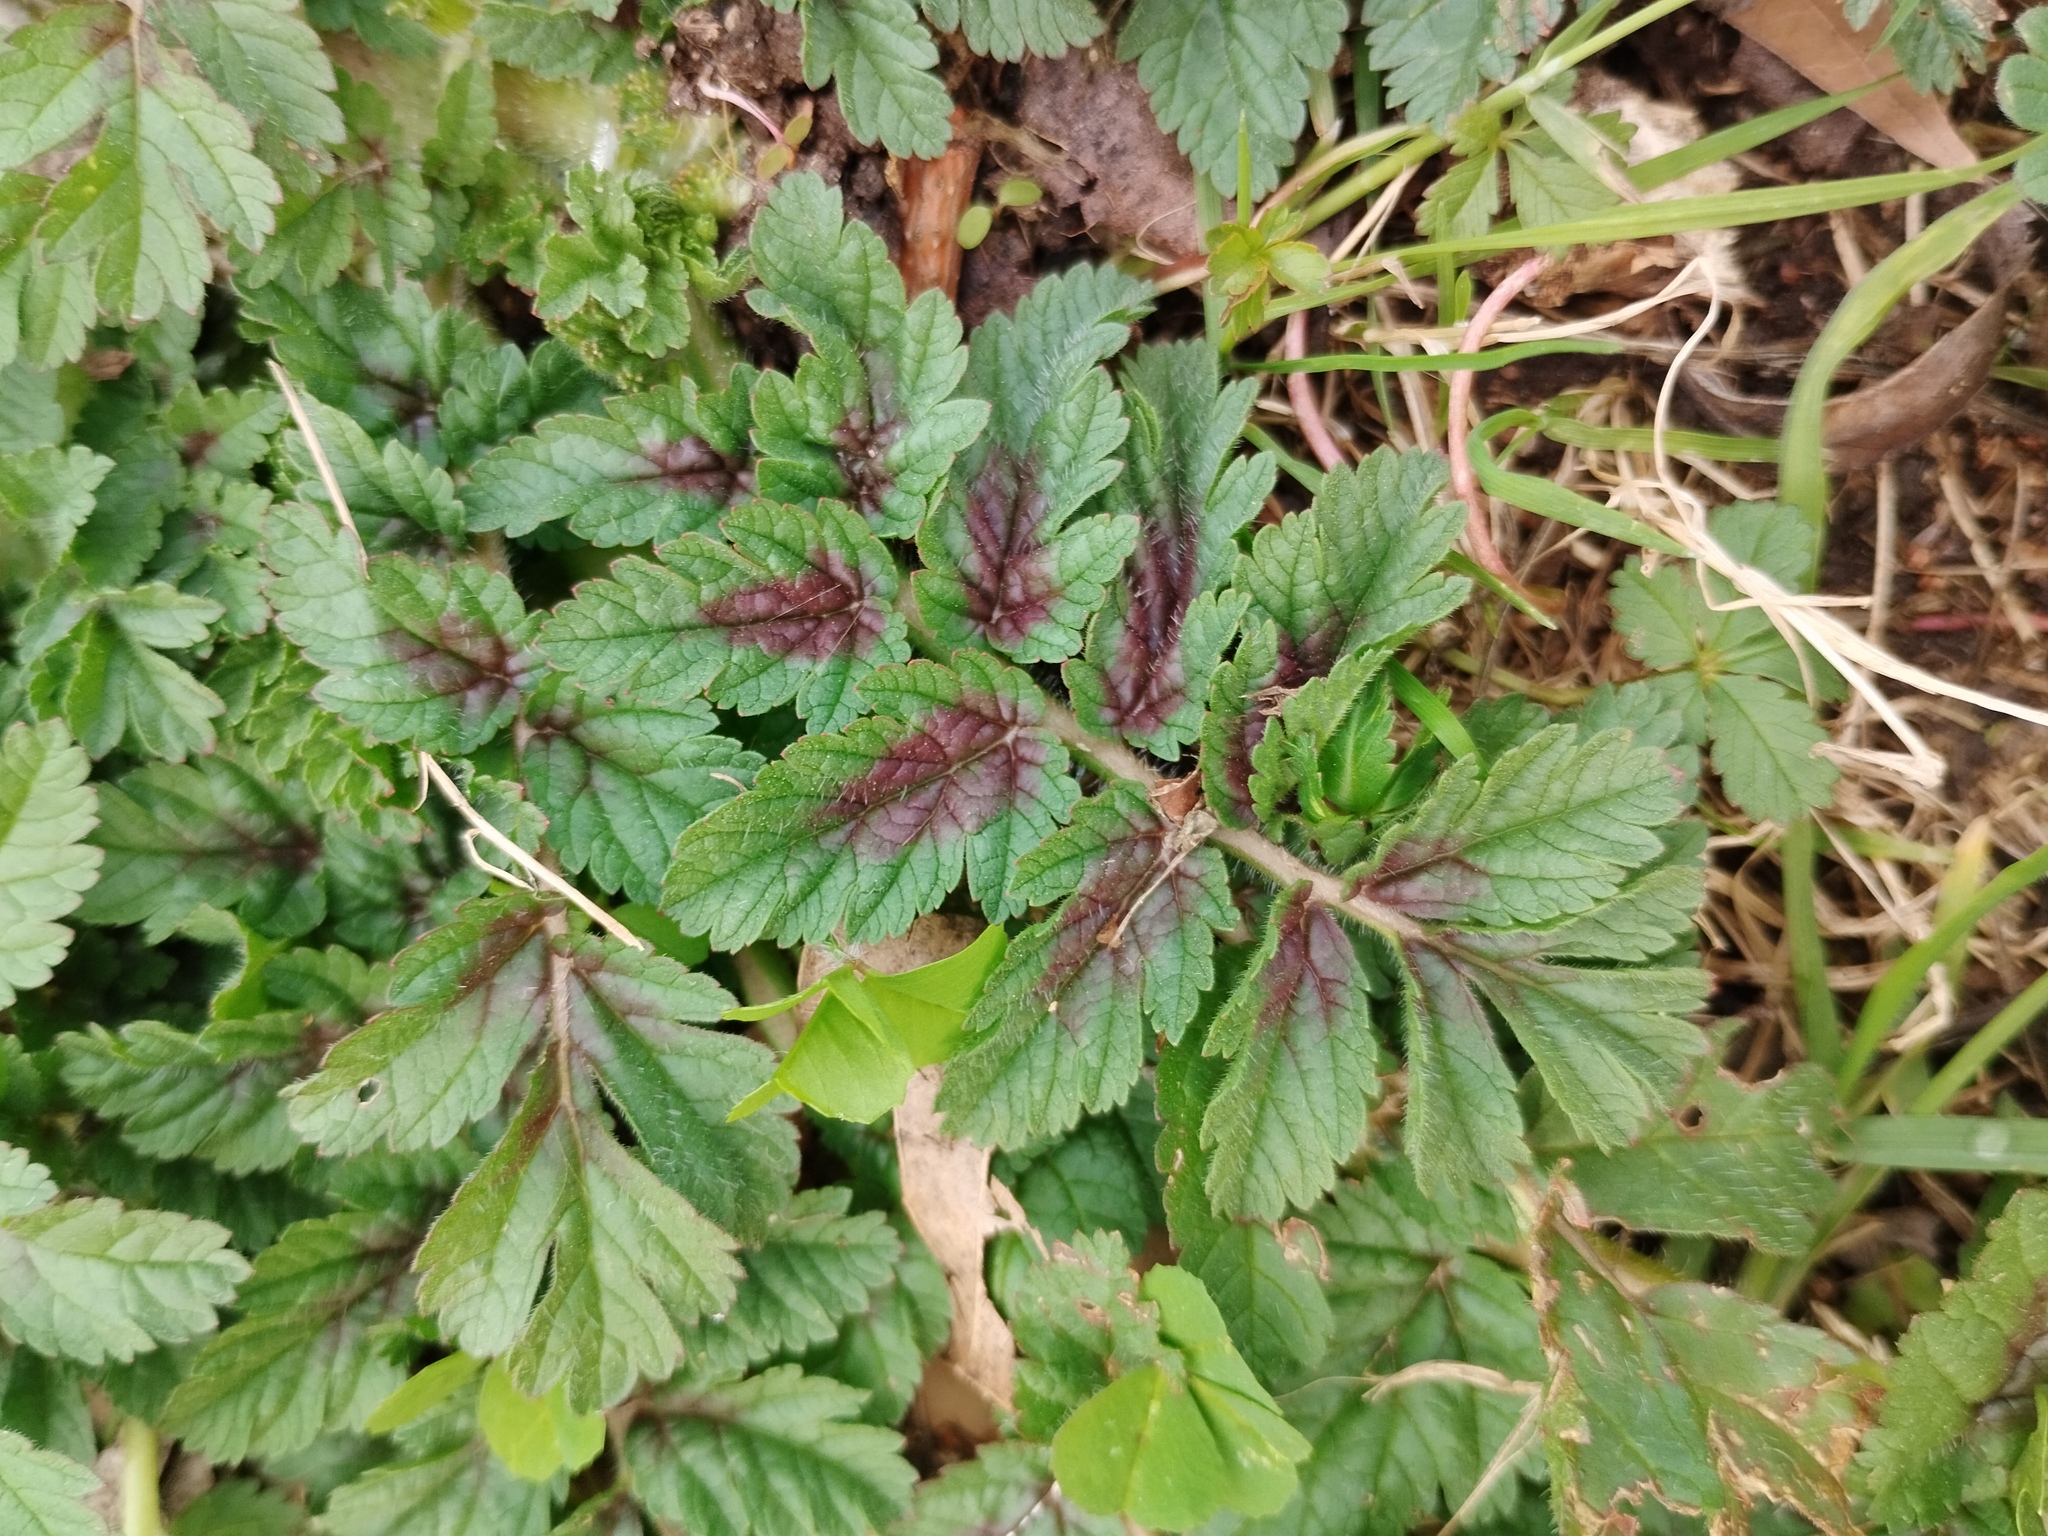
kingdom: Plantae
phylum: Tracheophyta
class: Magnoliopsida
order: Geraniales
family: Geraniaceae
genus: Erodium
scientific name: Erodium moschatum
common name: Musk stork's-bill
